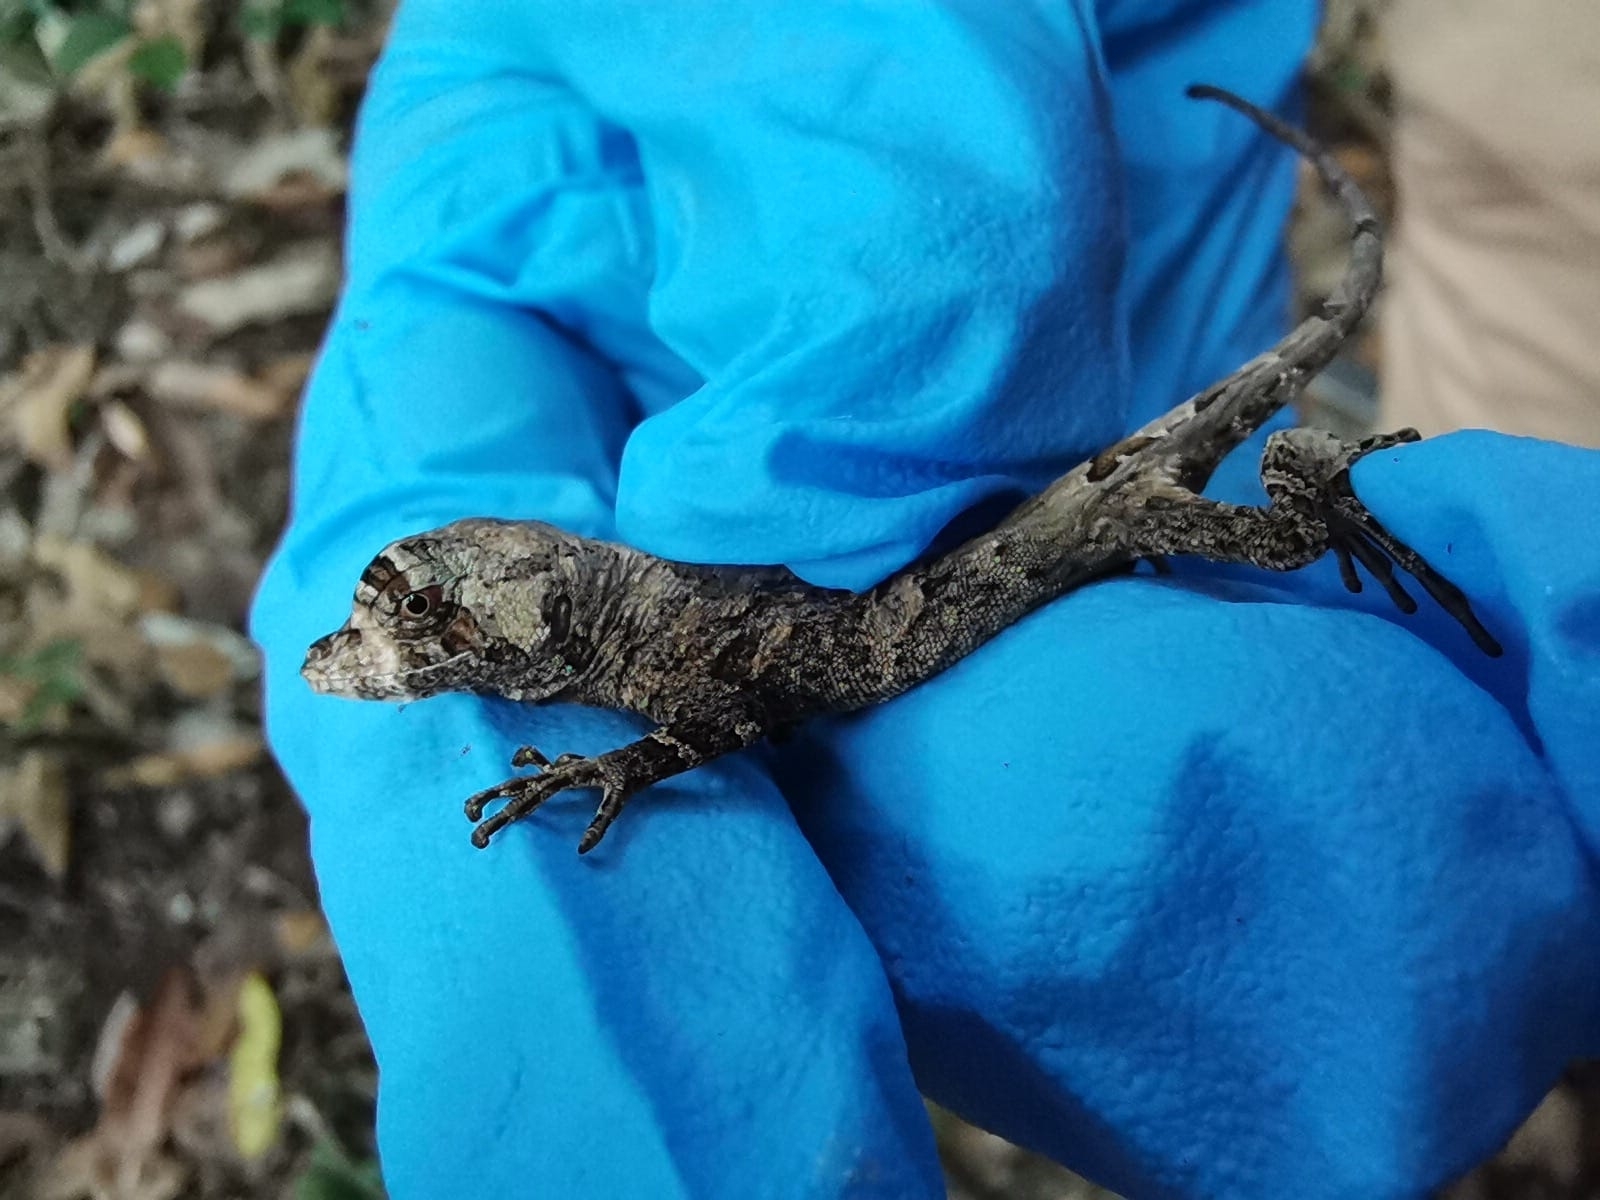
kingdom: Animalia
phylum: Chordata
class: Squamata
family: Dactyloidae
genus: Anolis
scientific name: Anolis capito
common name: Bighead anole
